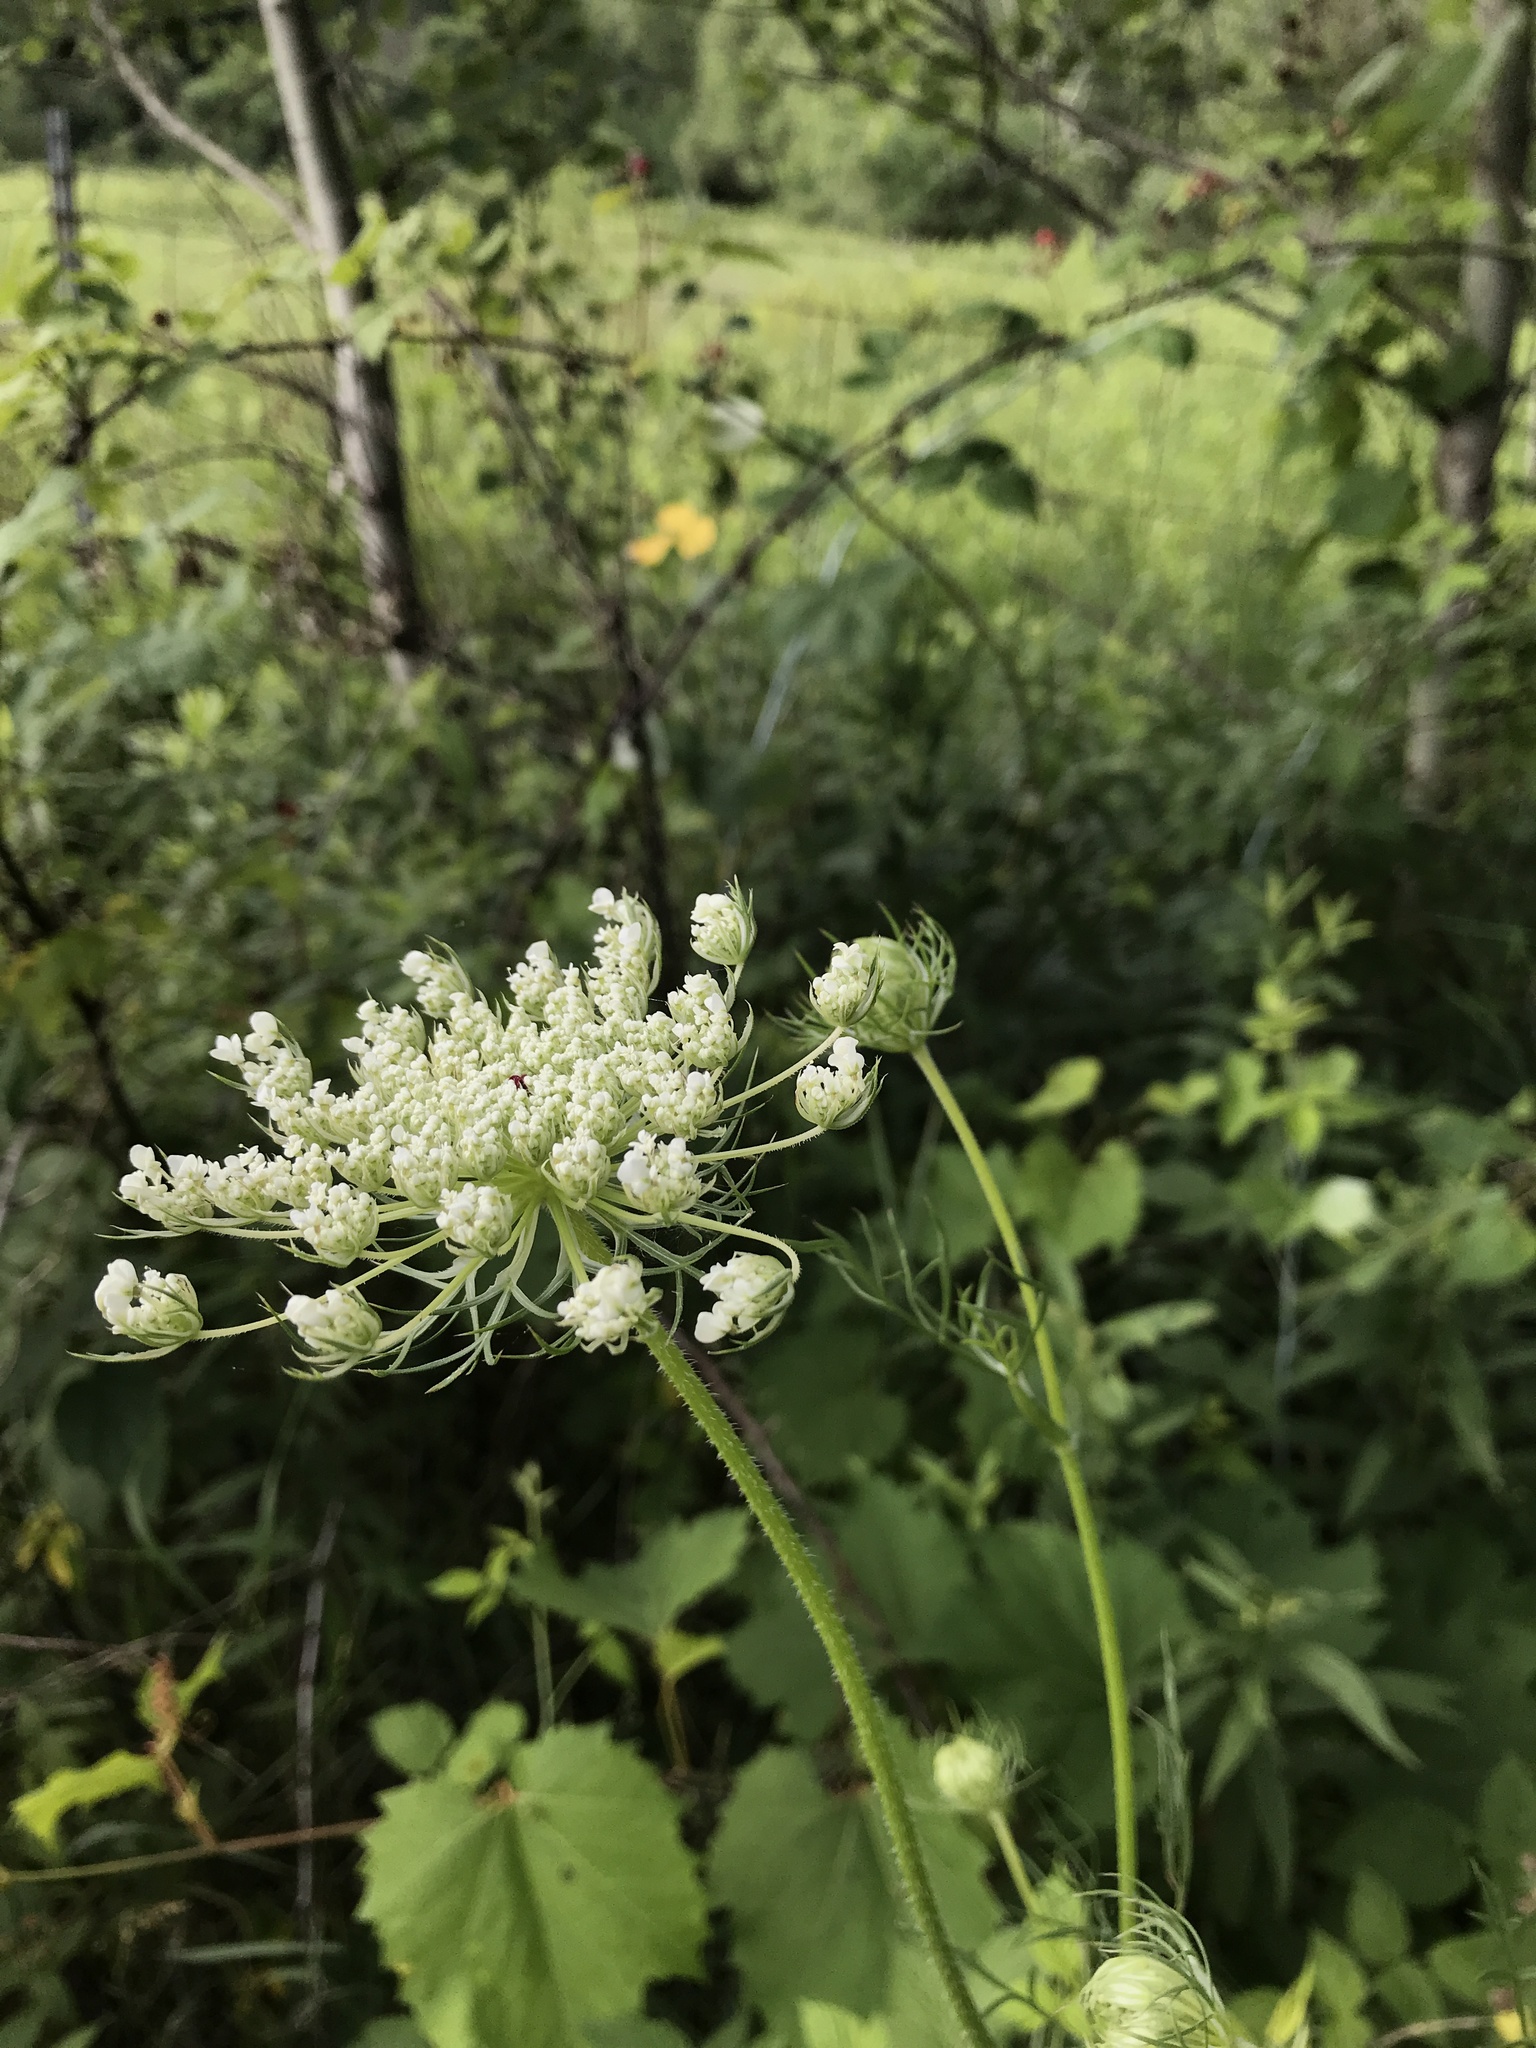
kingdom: Plantae
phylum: Tracheophyta
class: Magnoliopsida
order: Apiales
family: Apiaceae
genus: Daucus
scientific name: Daucus carota
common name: Wild carrot
